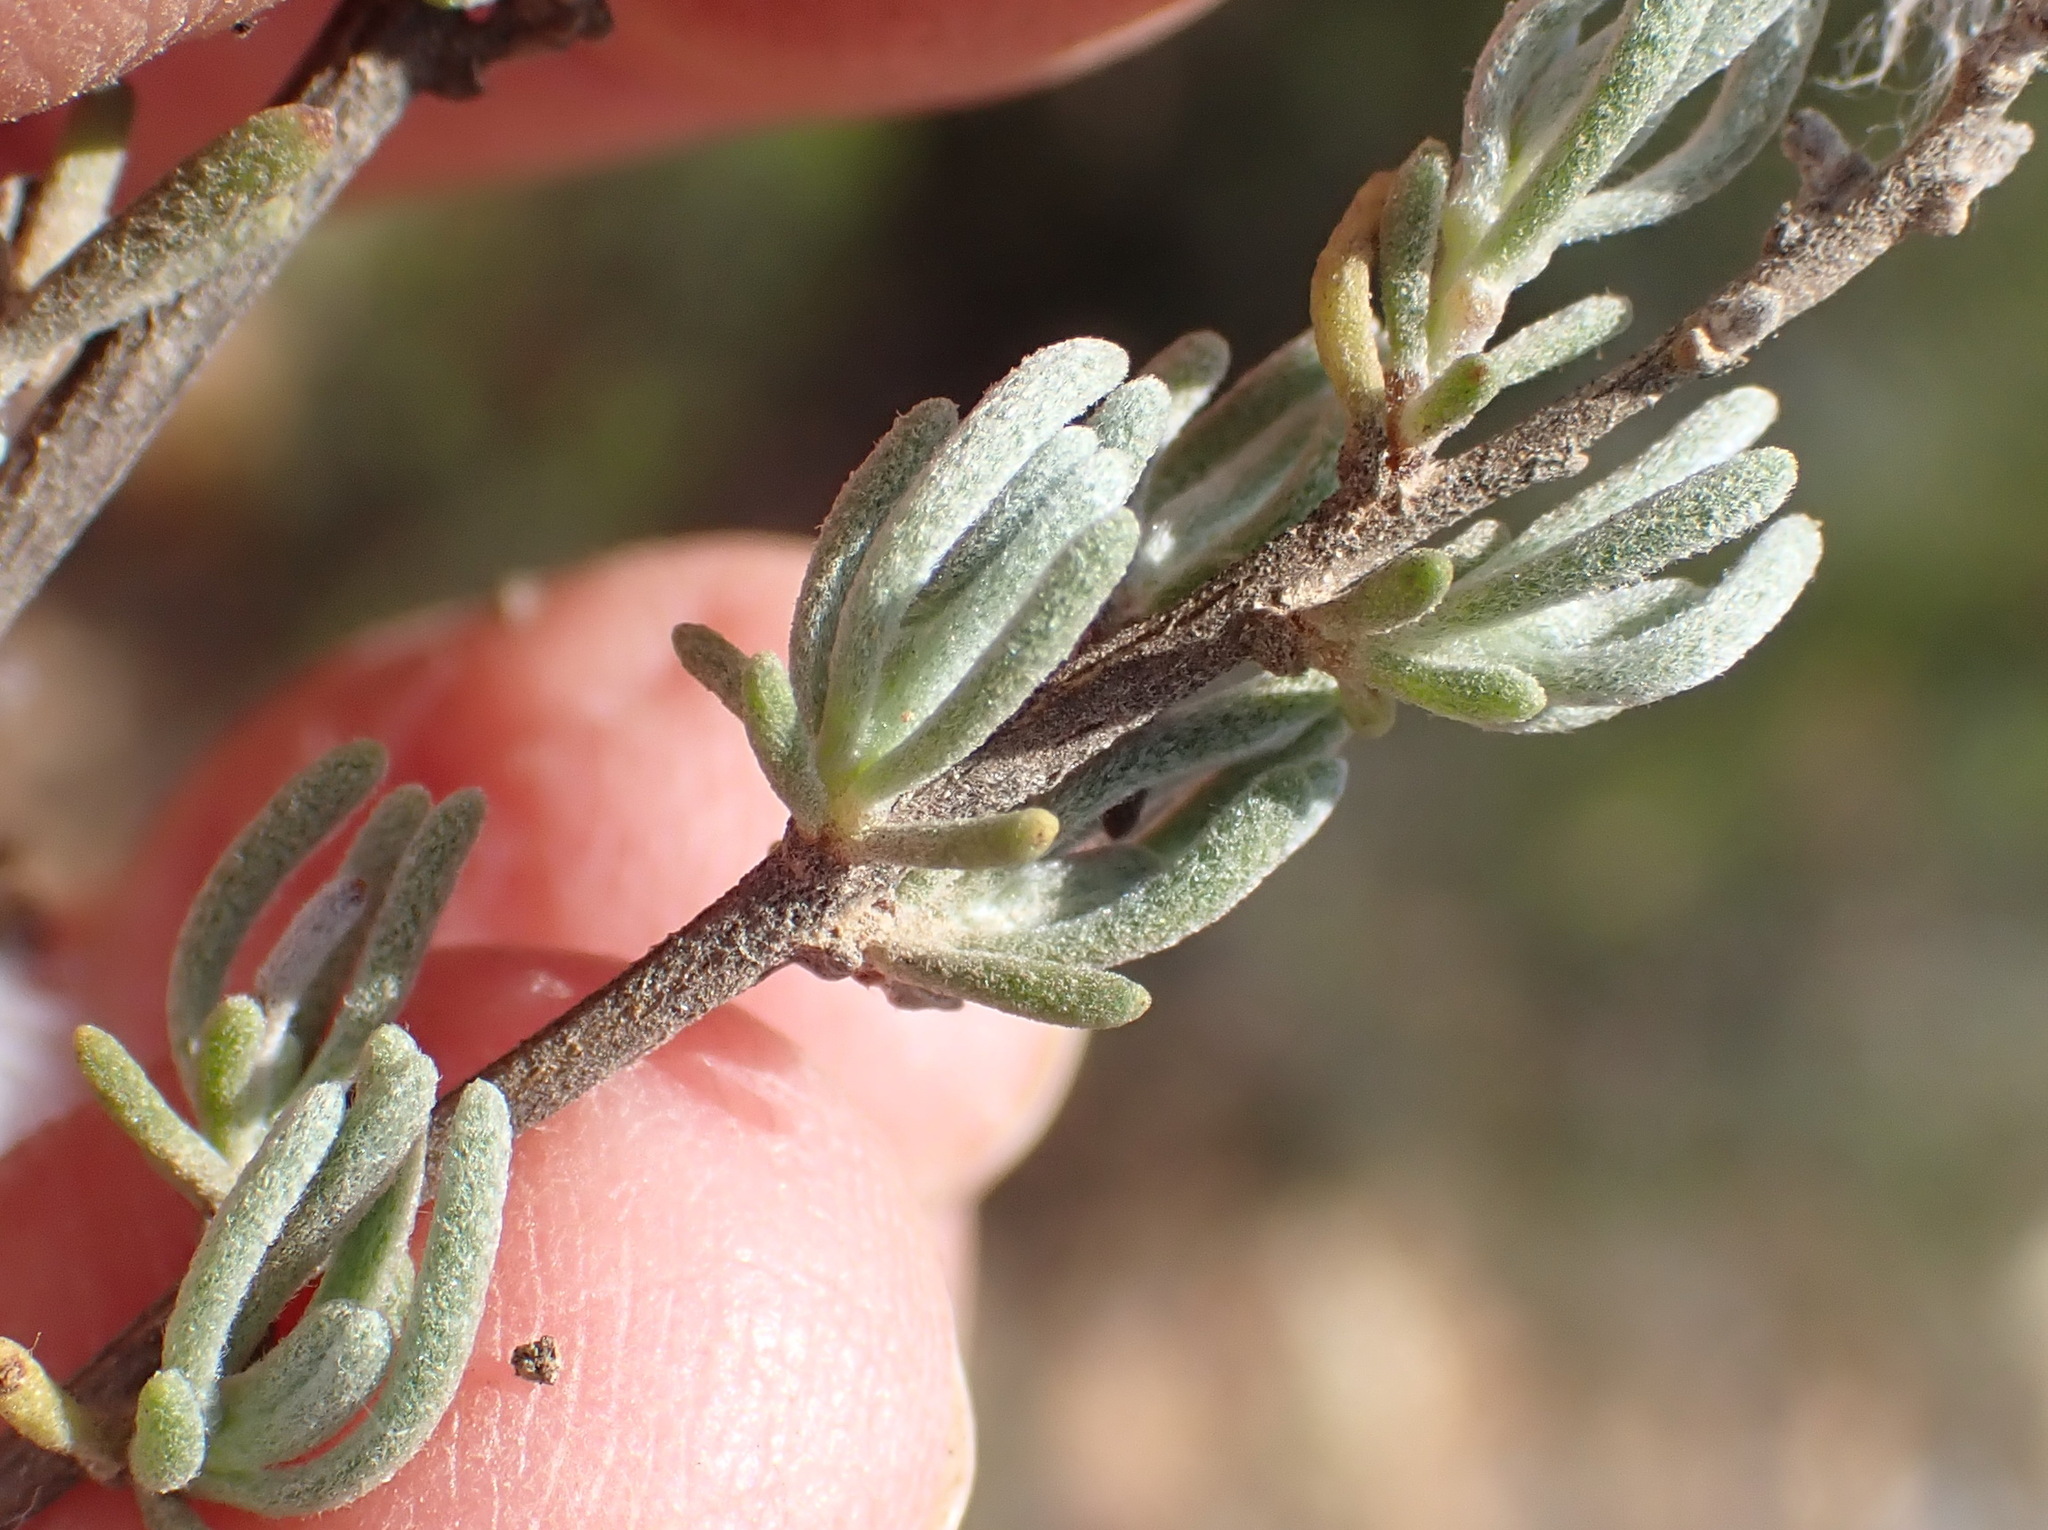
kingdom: Plantae
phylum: Tracheophyta
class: Magnoliopsida
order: Asterales
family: Asteraceae
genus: Eriocephalus
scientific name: Eriocephalus tenuipes
